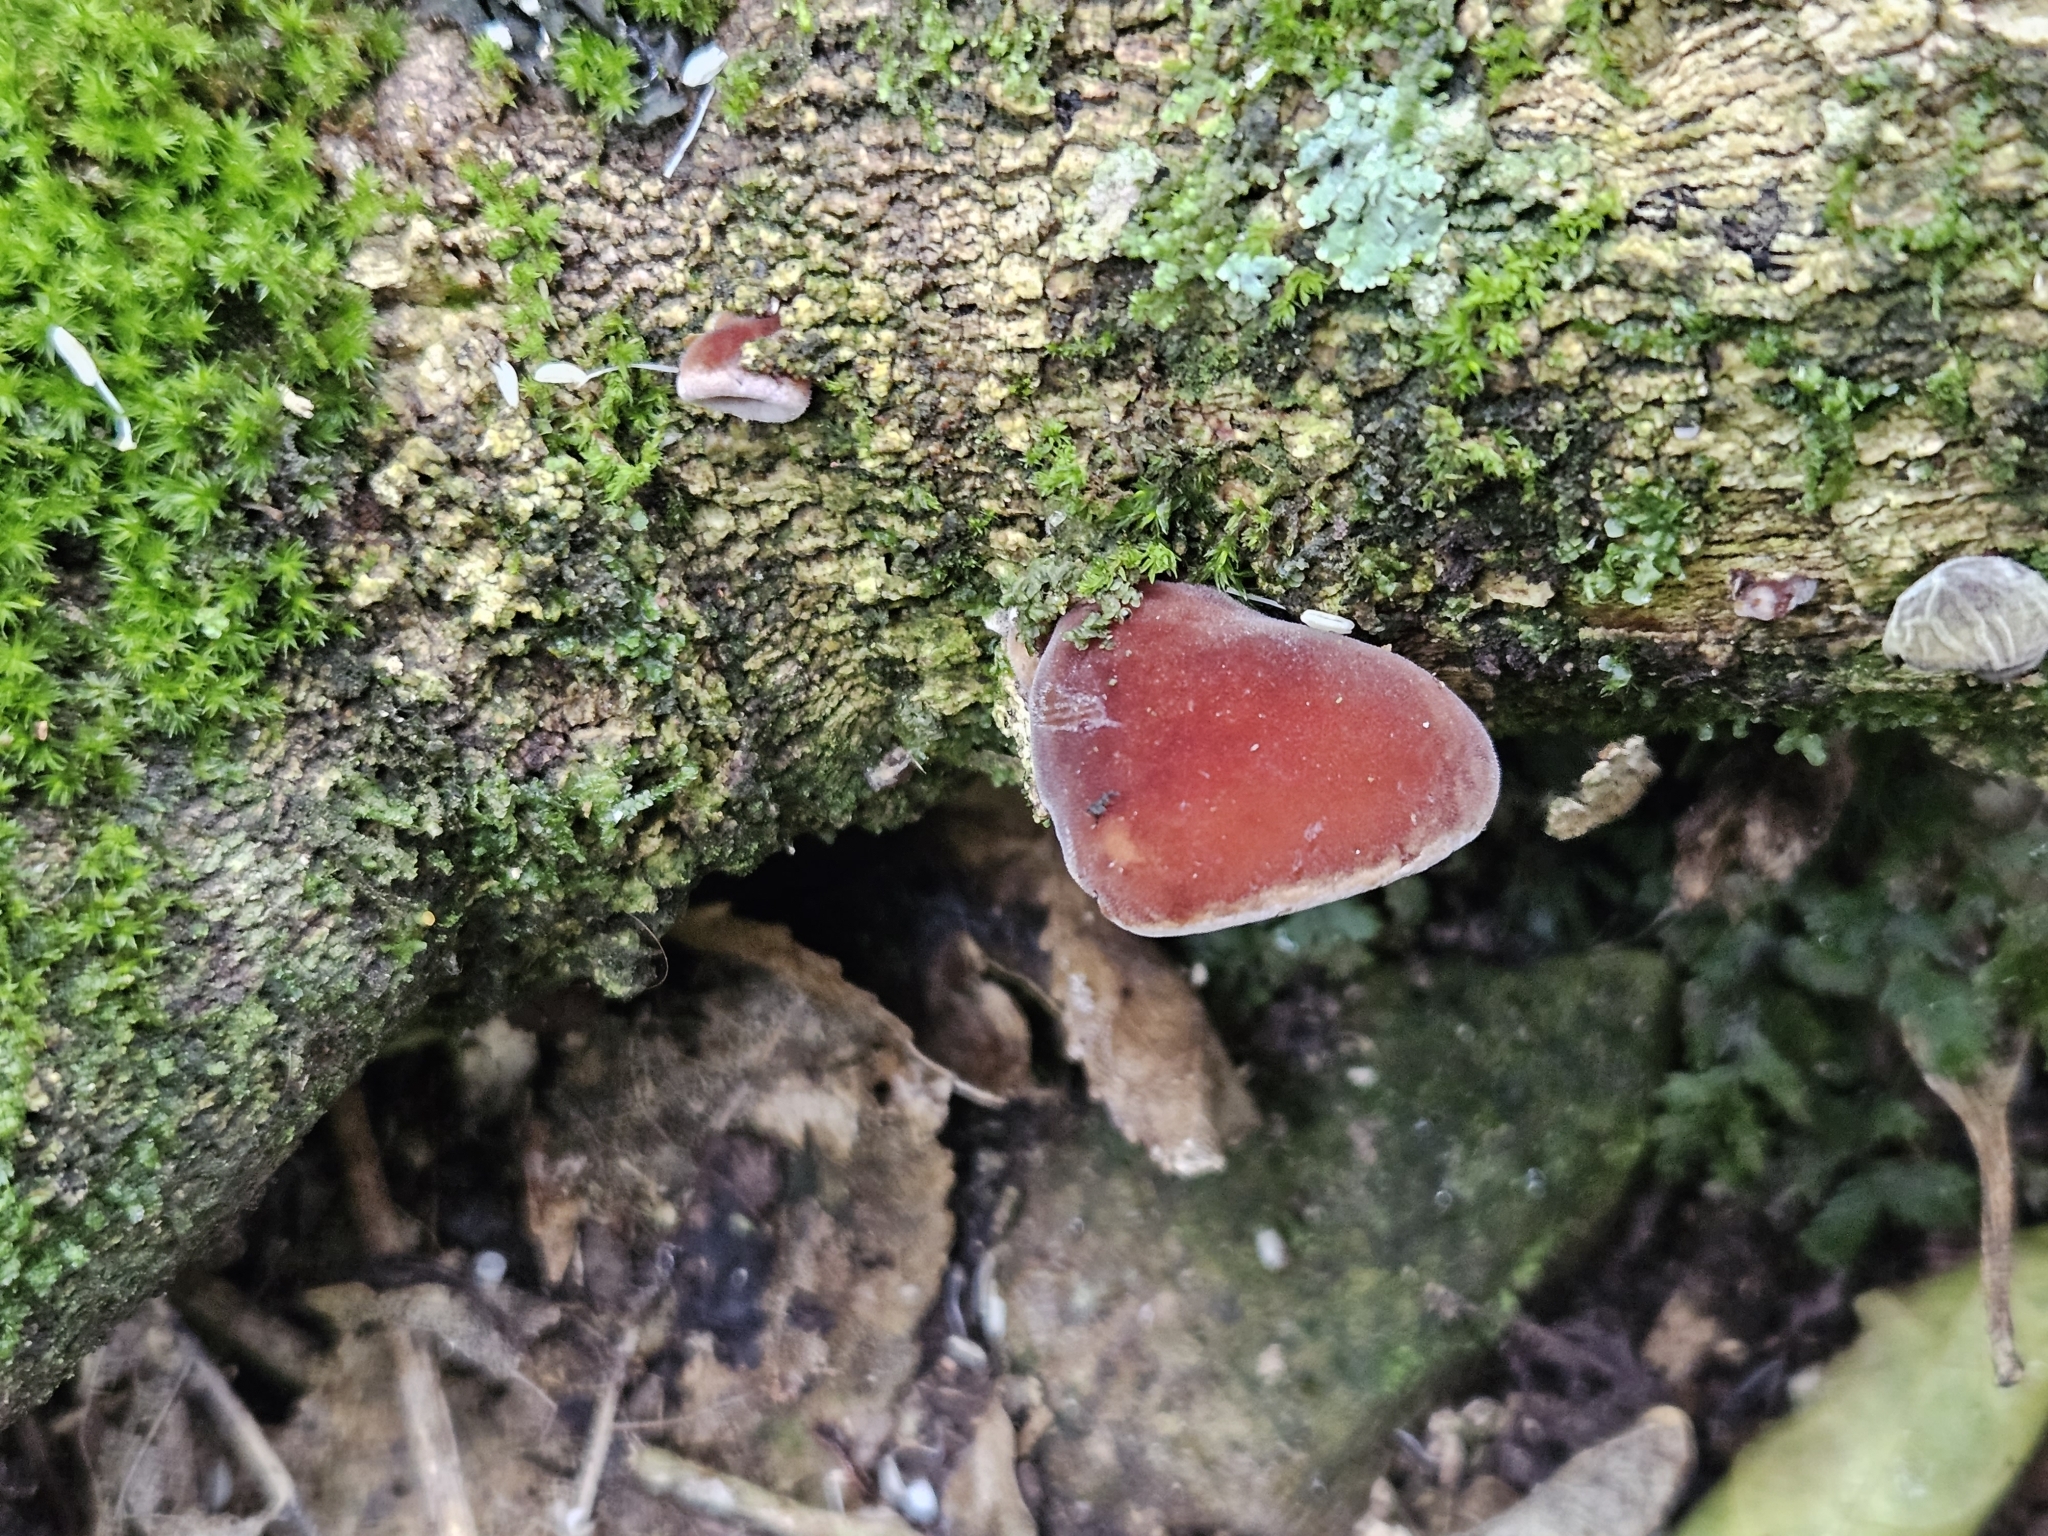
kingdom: Fungi
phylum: Basidiomycota
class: Agaricomycetes
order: Auriculariales
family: Auriculariaceae
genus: Auricularia
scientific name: Auricularia cornea
